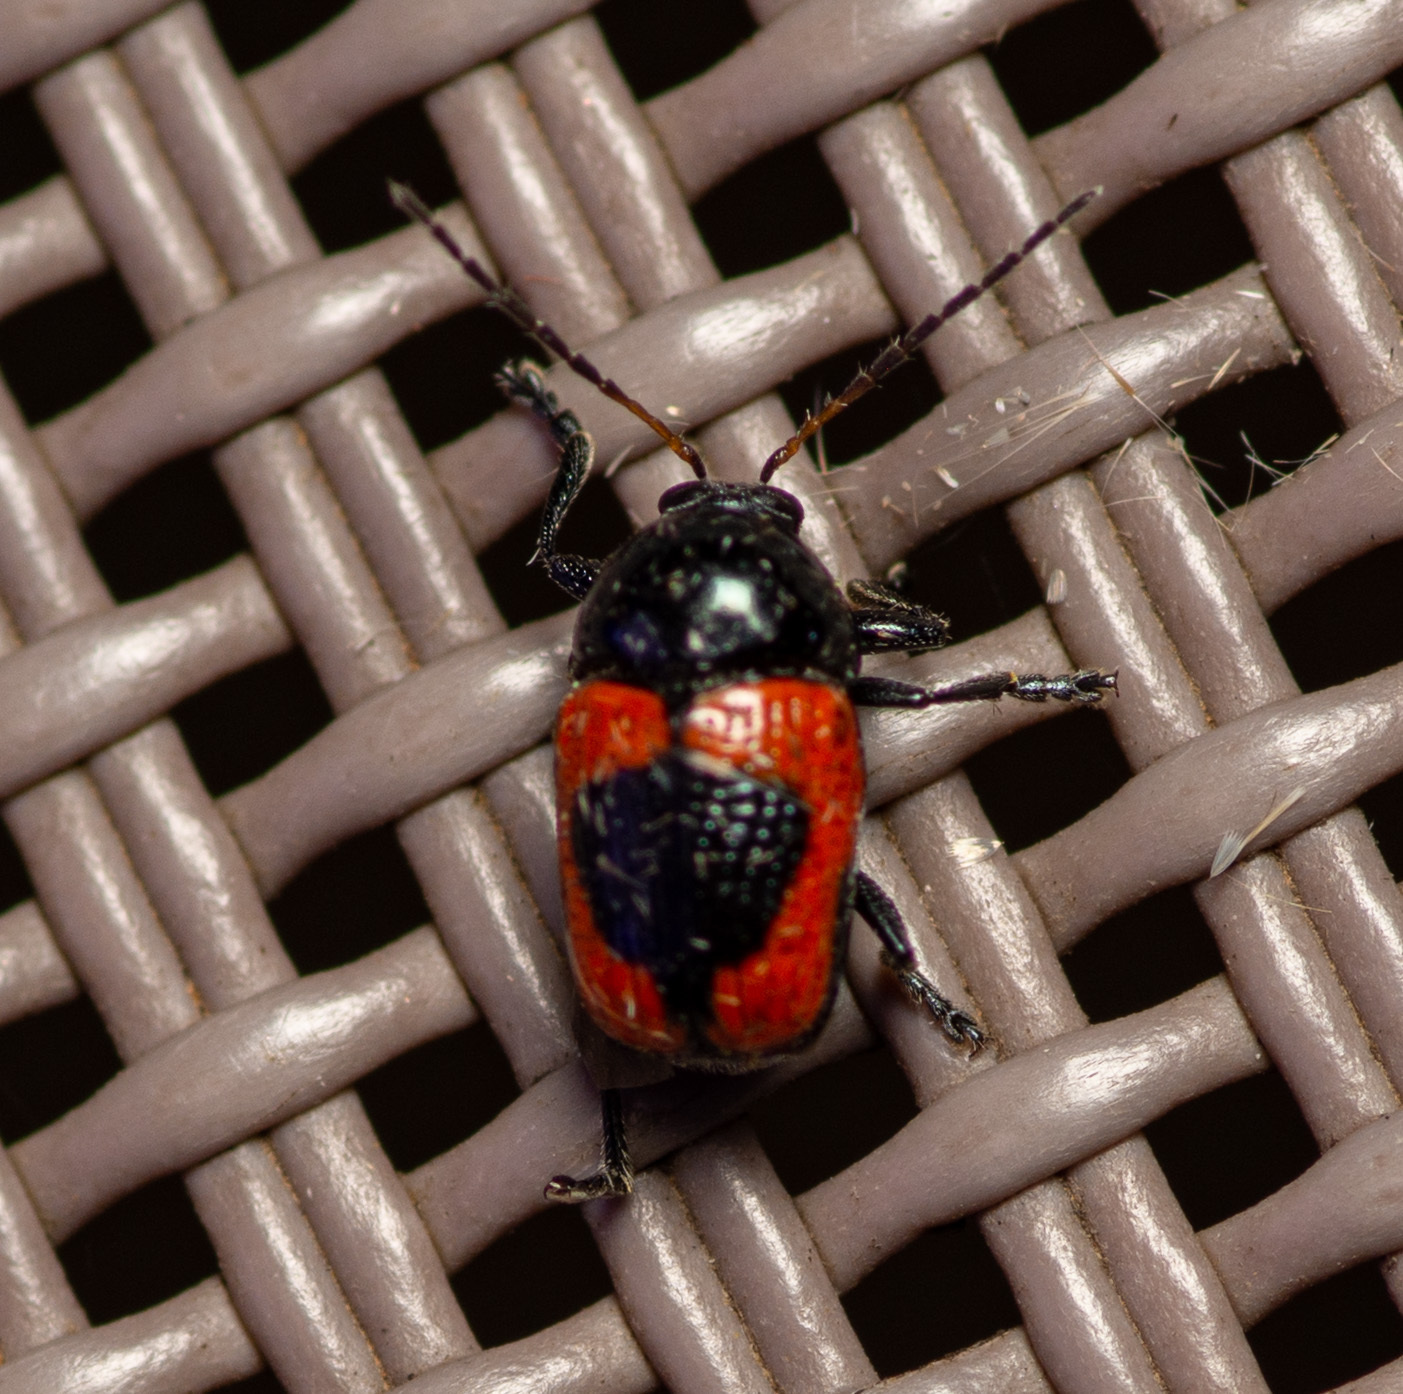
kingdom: Animalia
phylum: Arthropoda
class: Insecta
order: Coleoptera
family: Chrysomelidae
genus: Cryptocephalus
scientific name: Cryptocephalus notatus
